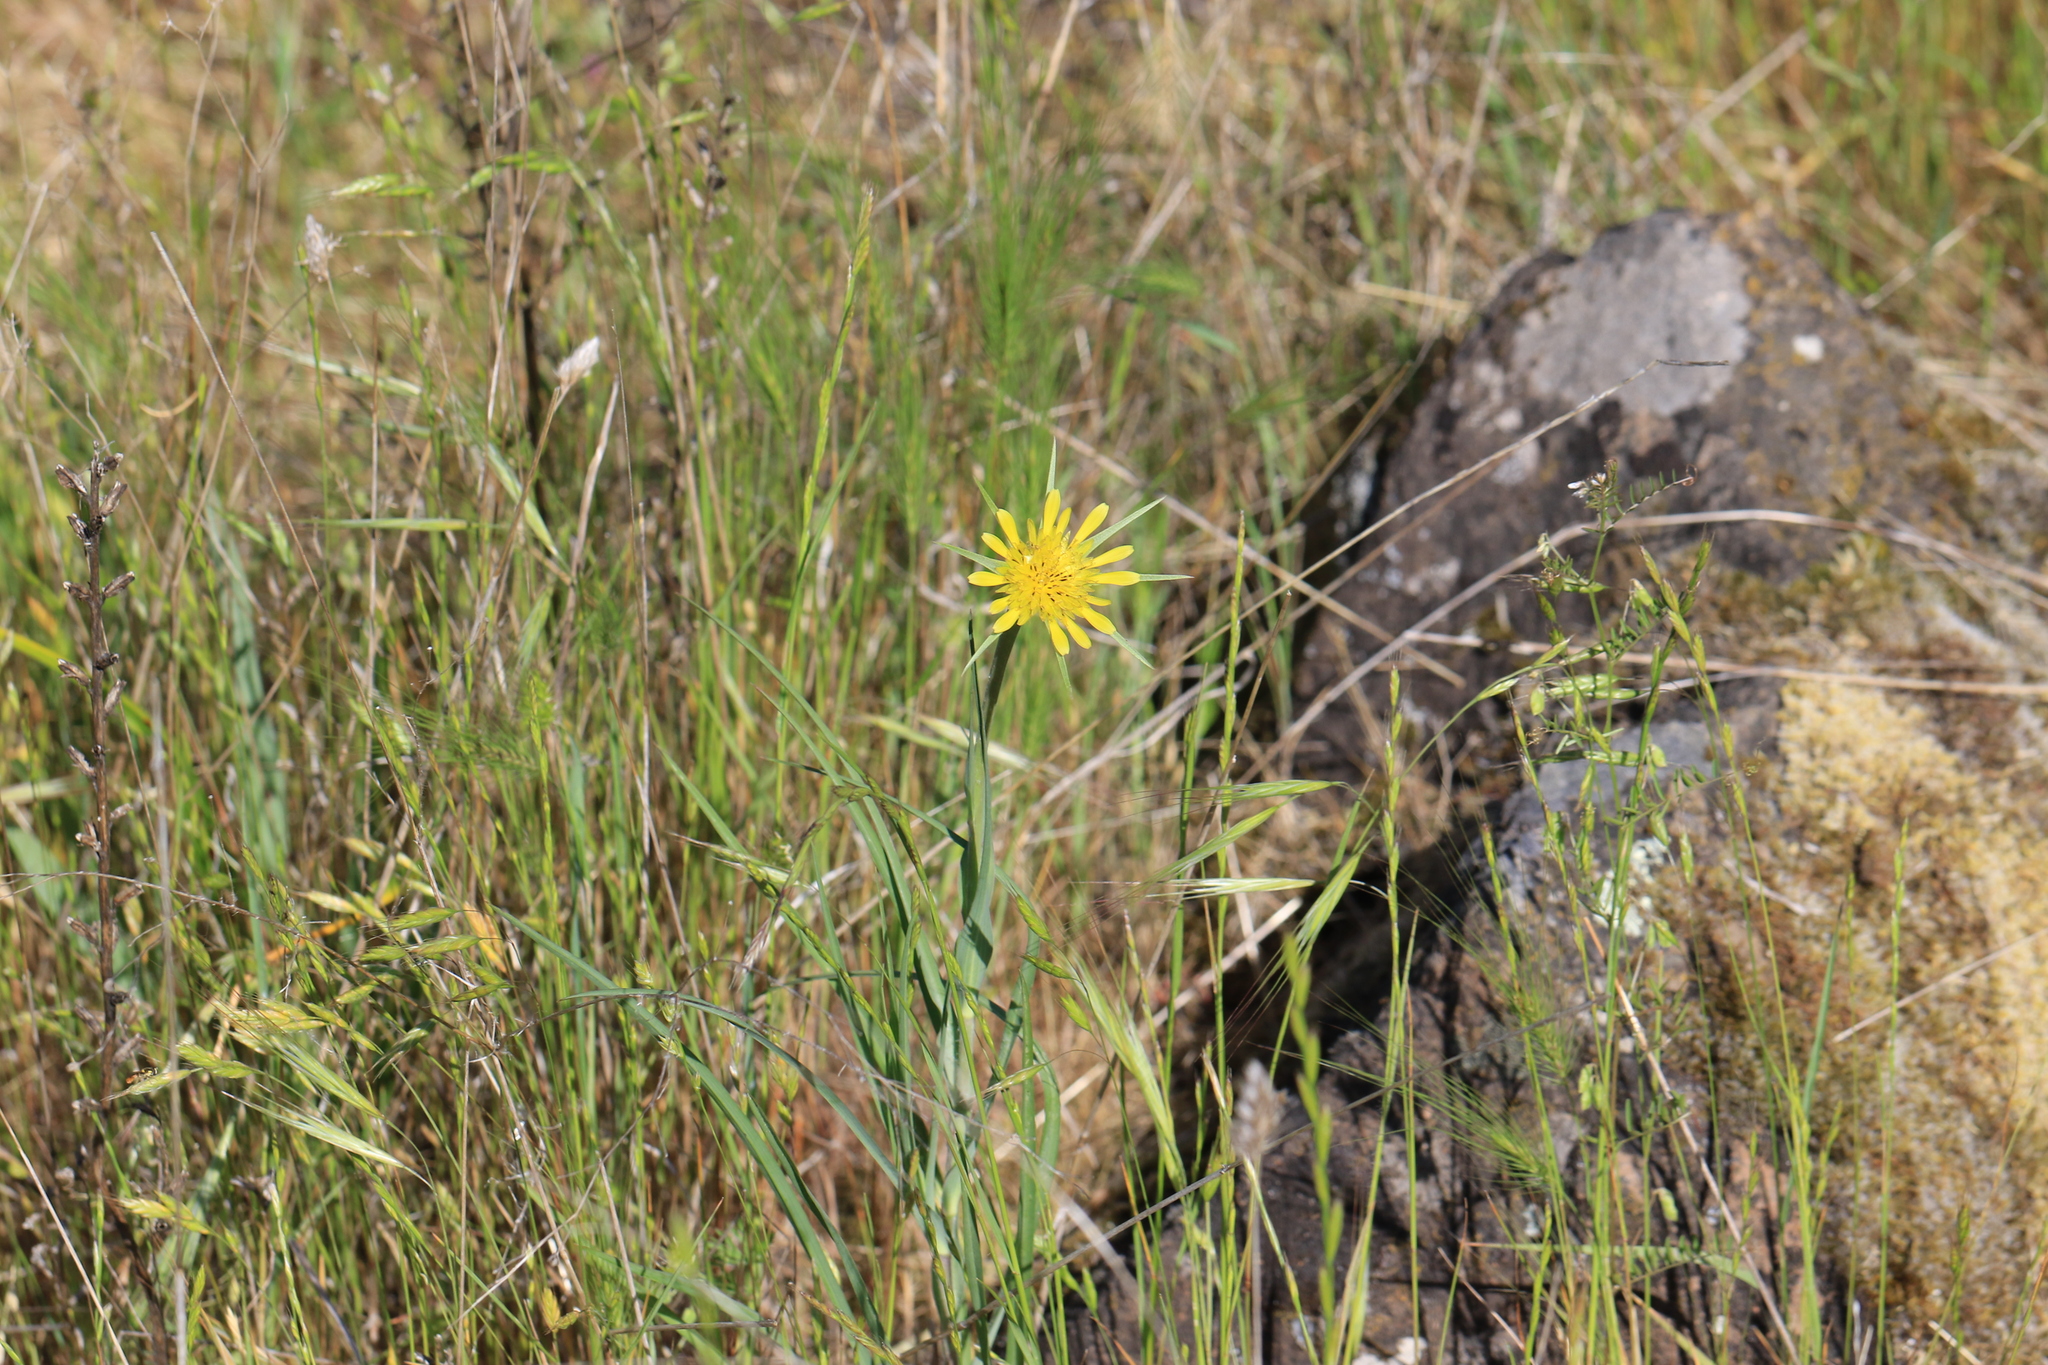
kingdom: Plantae
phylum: Tracheophyta
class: Magnoliopsida
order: Asterales
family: Asteraceae
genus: Tragopogon
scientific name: Tragopogon dubius
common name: Yellow salsify
